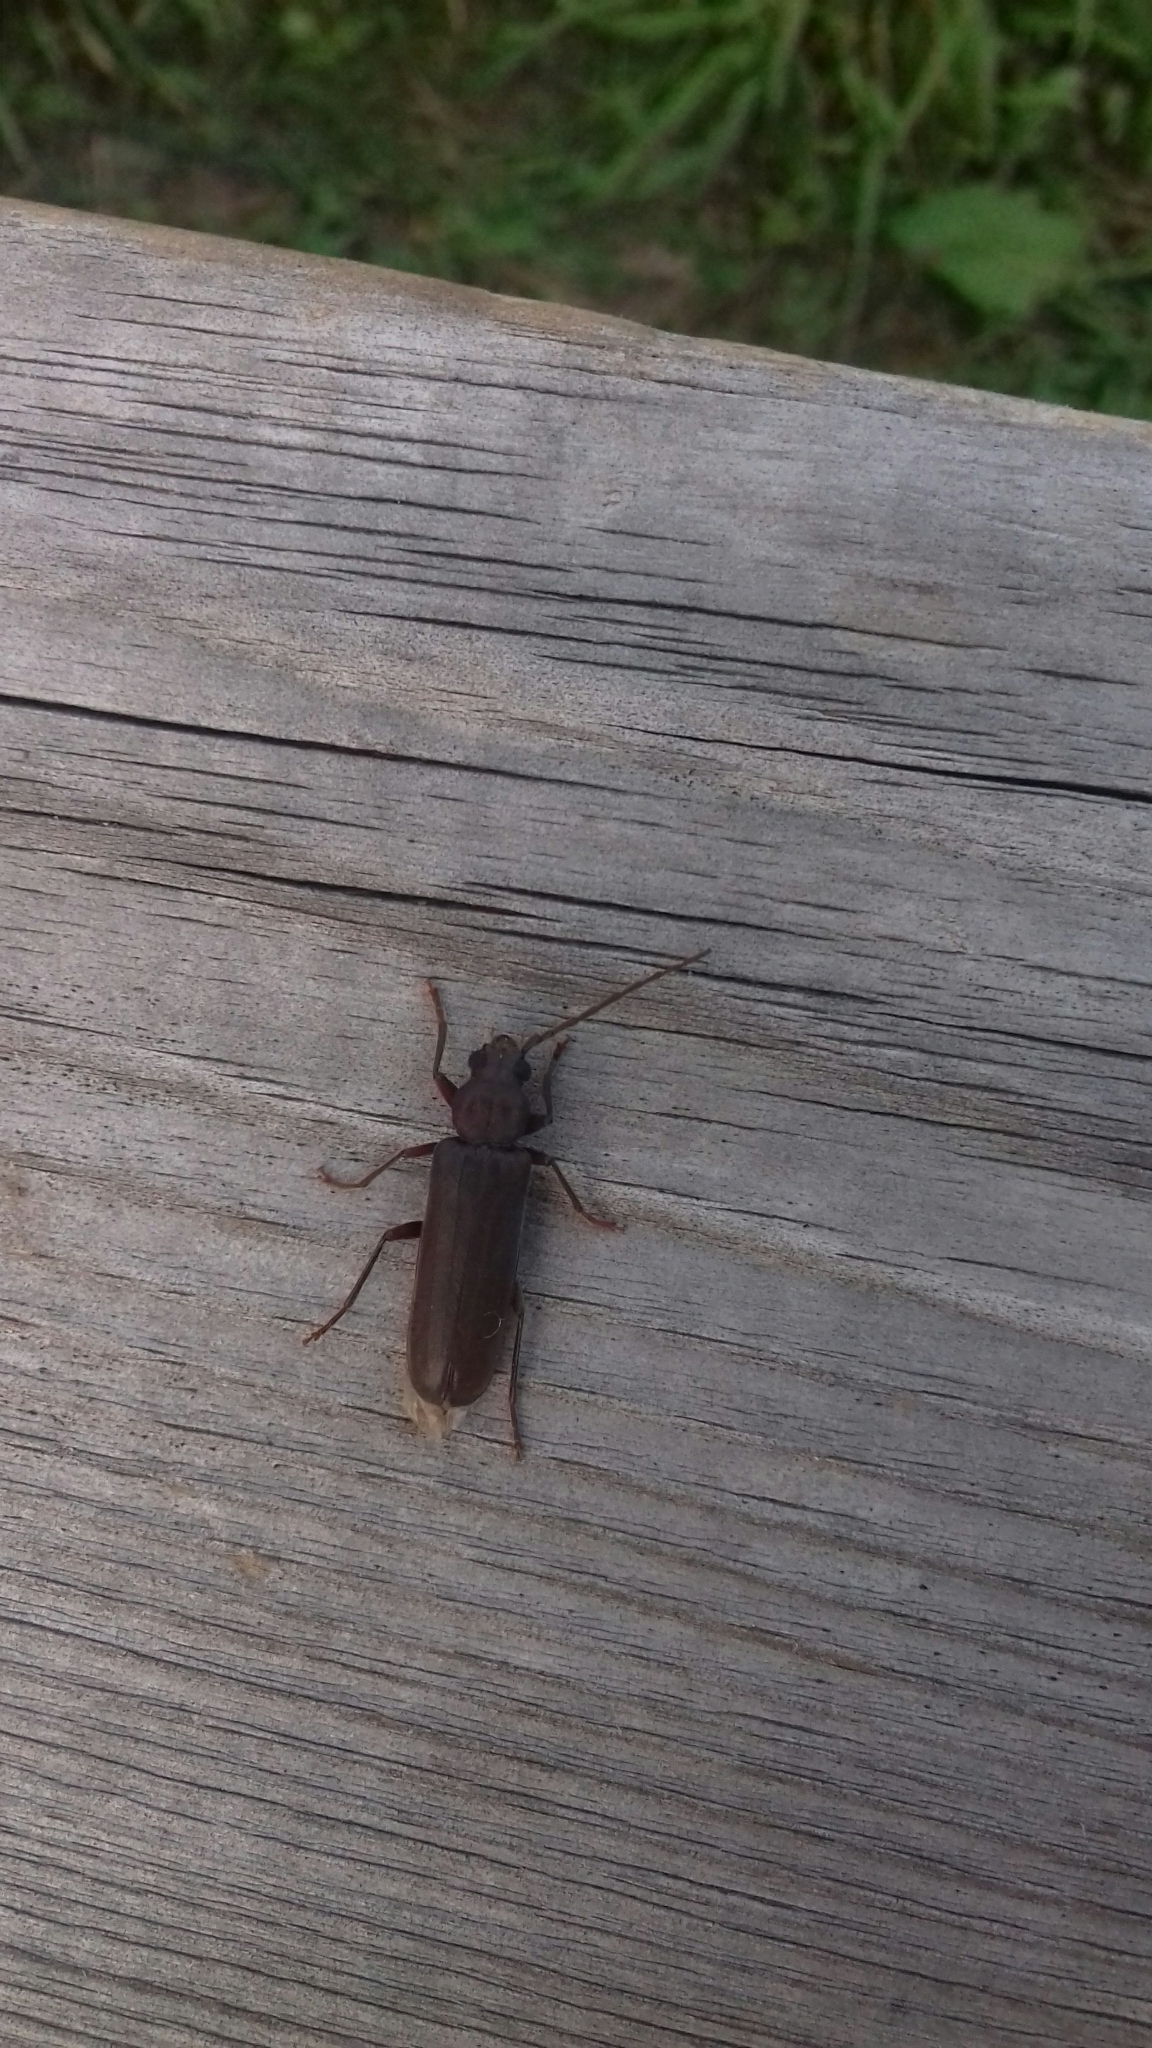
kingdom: Animalia
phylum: Arthropoda
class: Insecta
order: Coleoptera
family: Cerambycidae
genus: Arhopalus
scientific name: Arhopalus rusticus
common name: Rust pine borer
